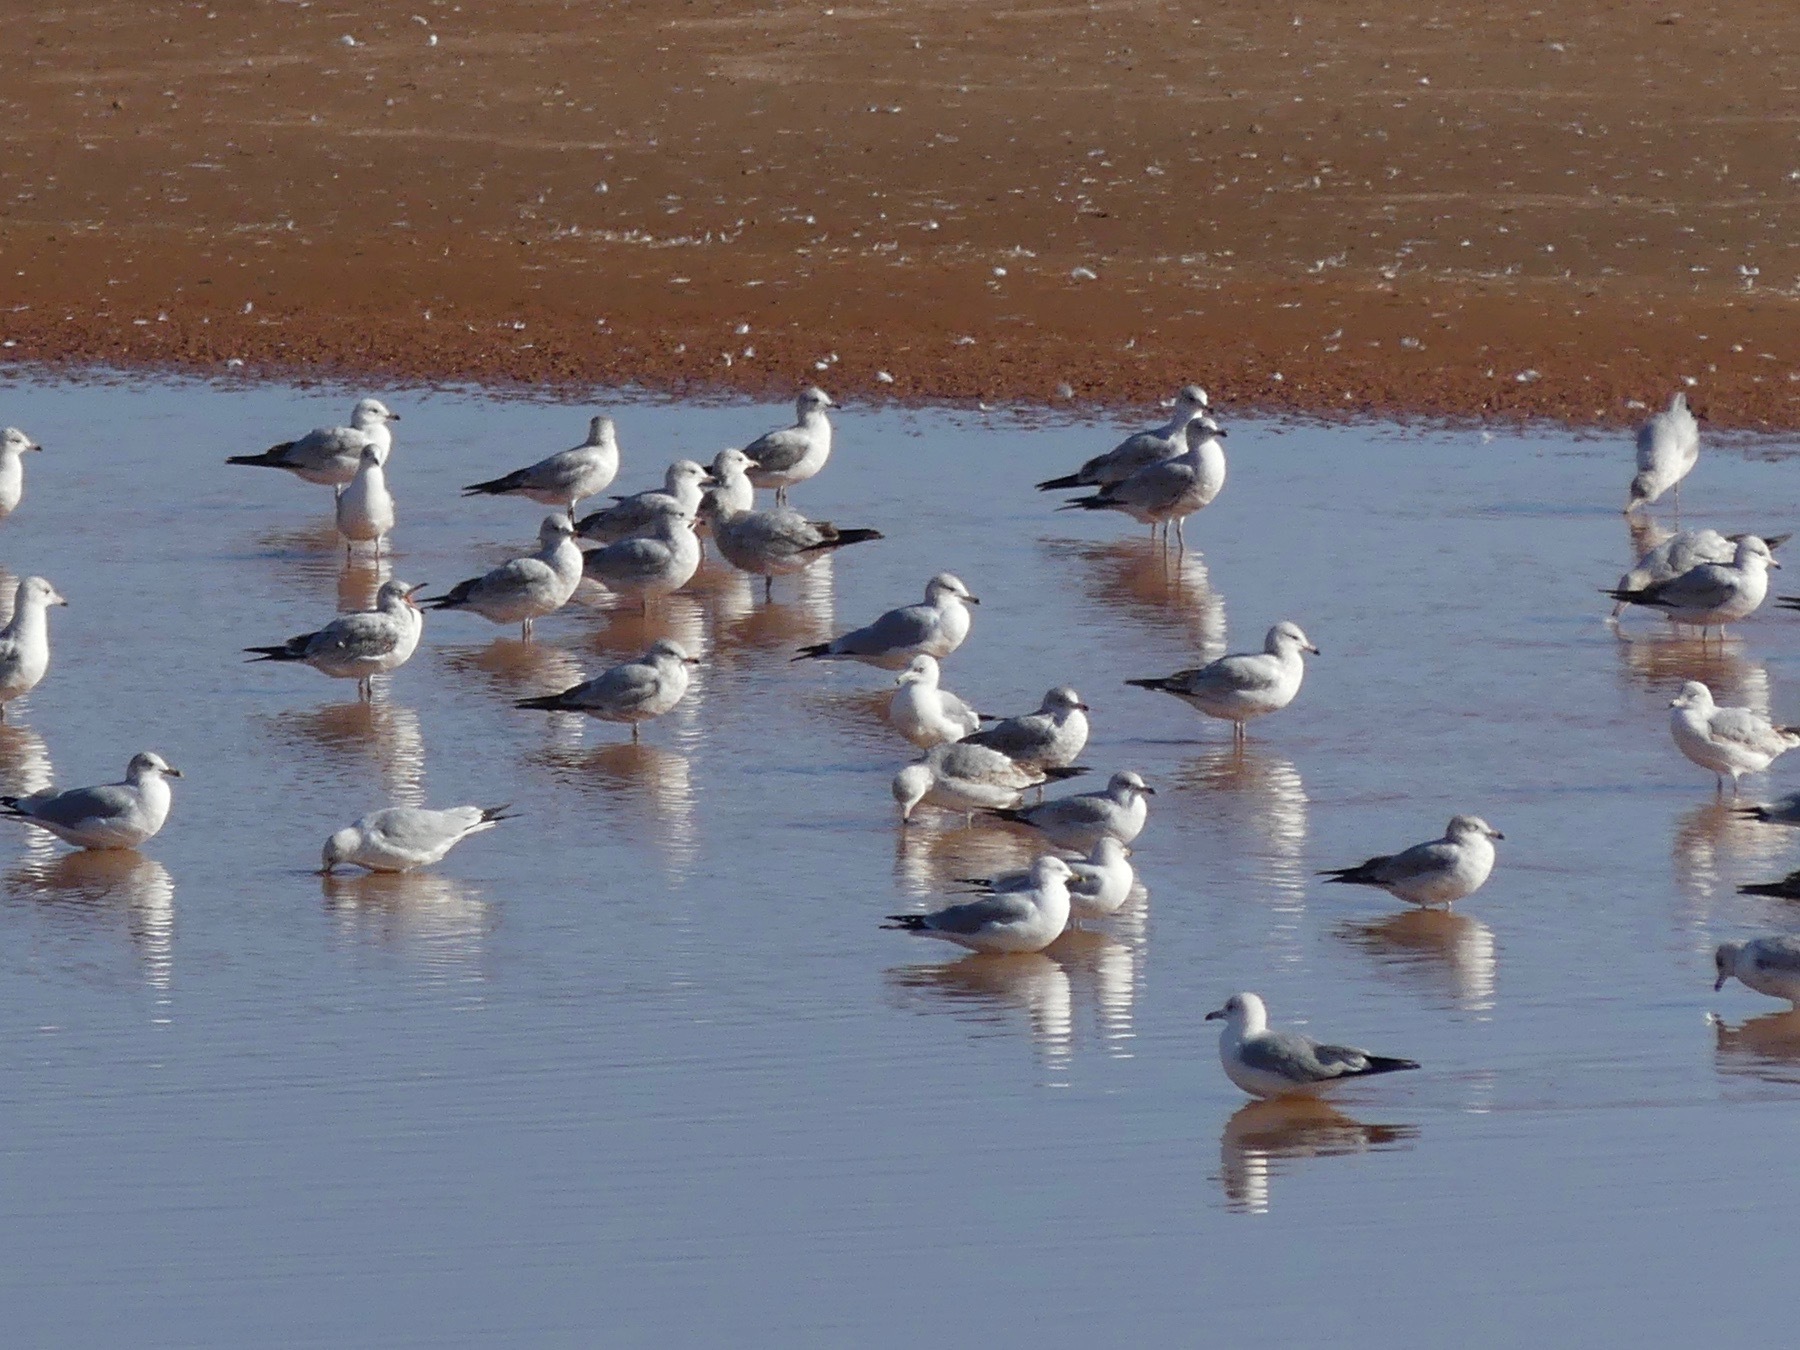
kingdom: Animalia
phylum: Chordata
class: Aves
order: Charadriiformes
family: Laridae
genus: Larus
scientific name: Larus delawarensis
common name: Ring-billed gull
